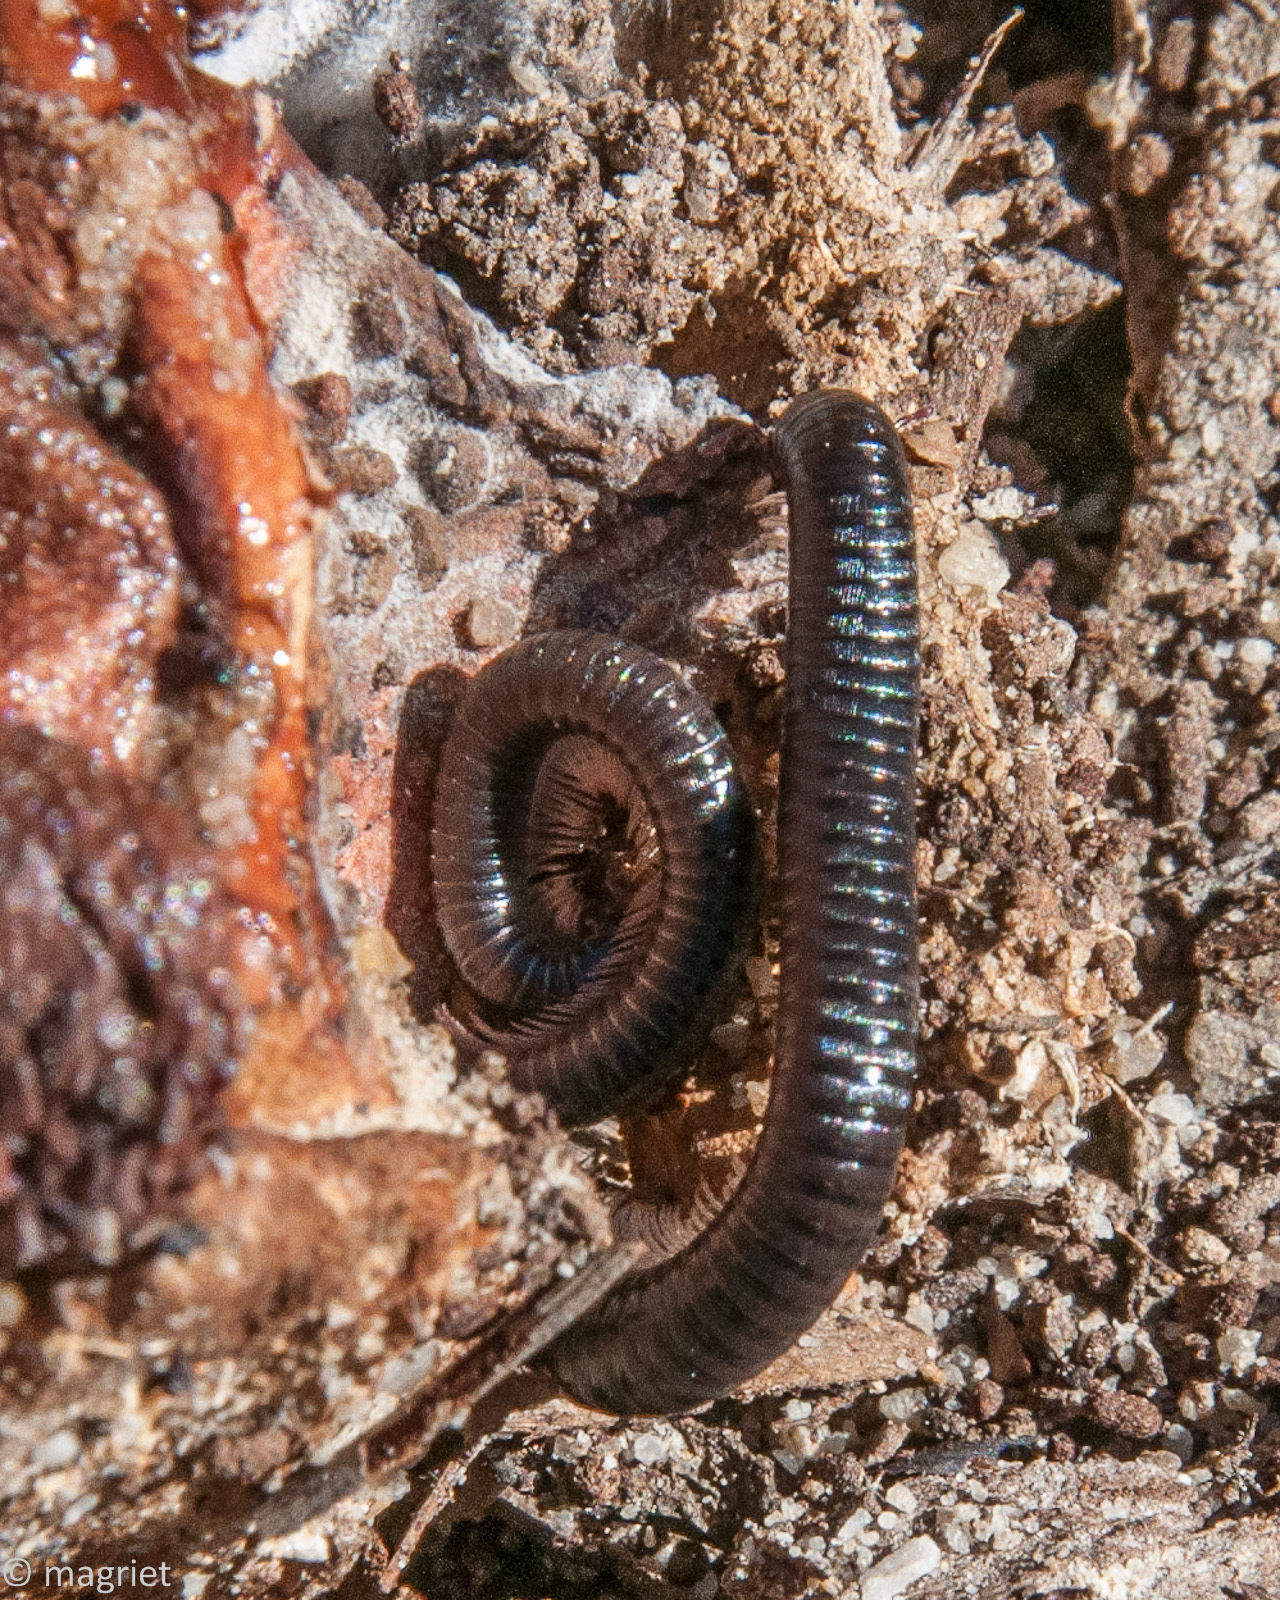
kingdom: Animalia
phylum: Arthropoda
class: Diplopoda
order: Julida
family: Julidae
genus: Ommatoiulus
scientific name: Ommatoiulus moreleti
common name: Portuguese millipede
